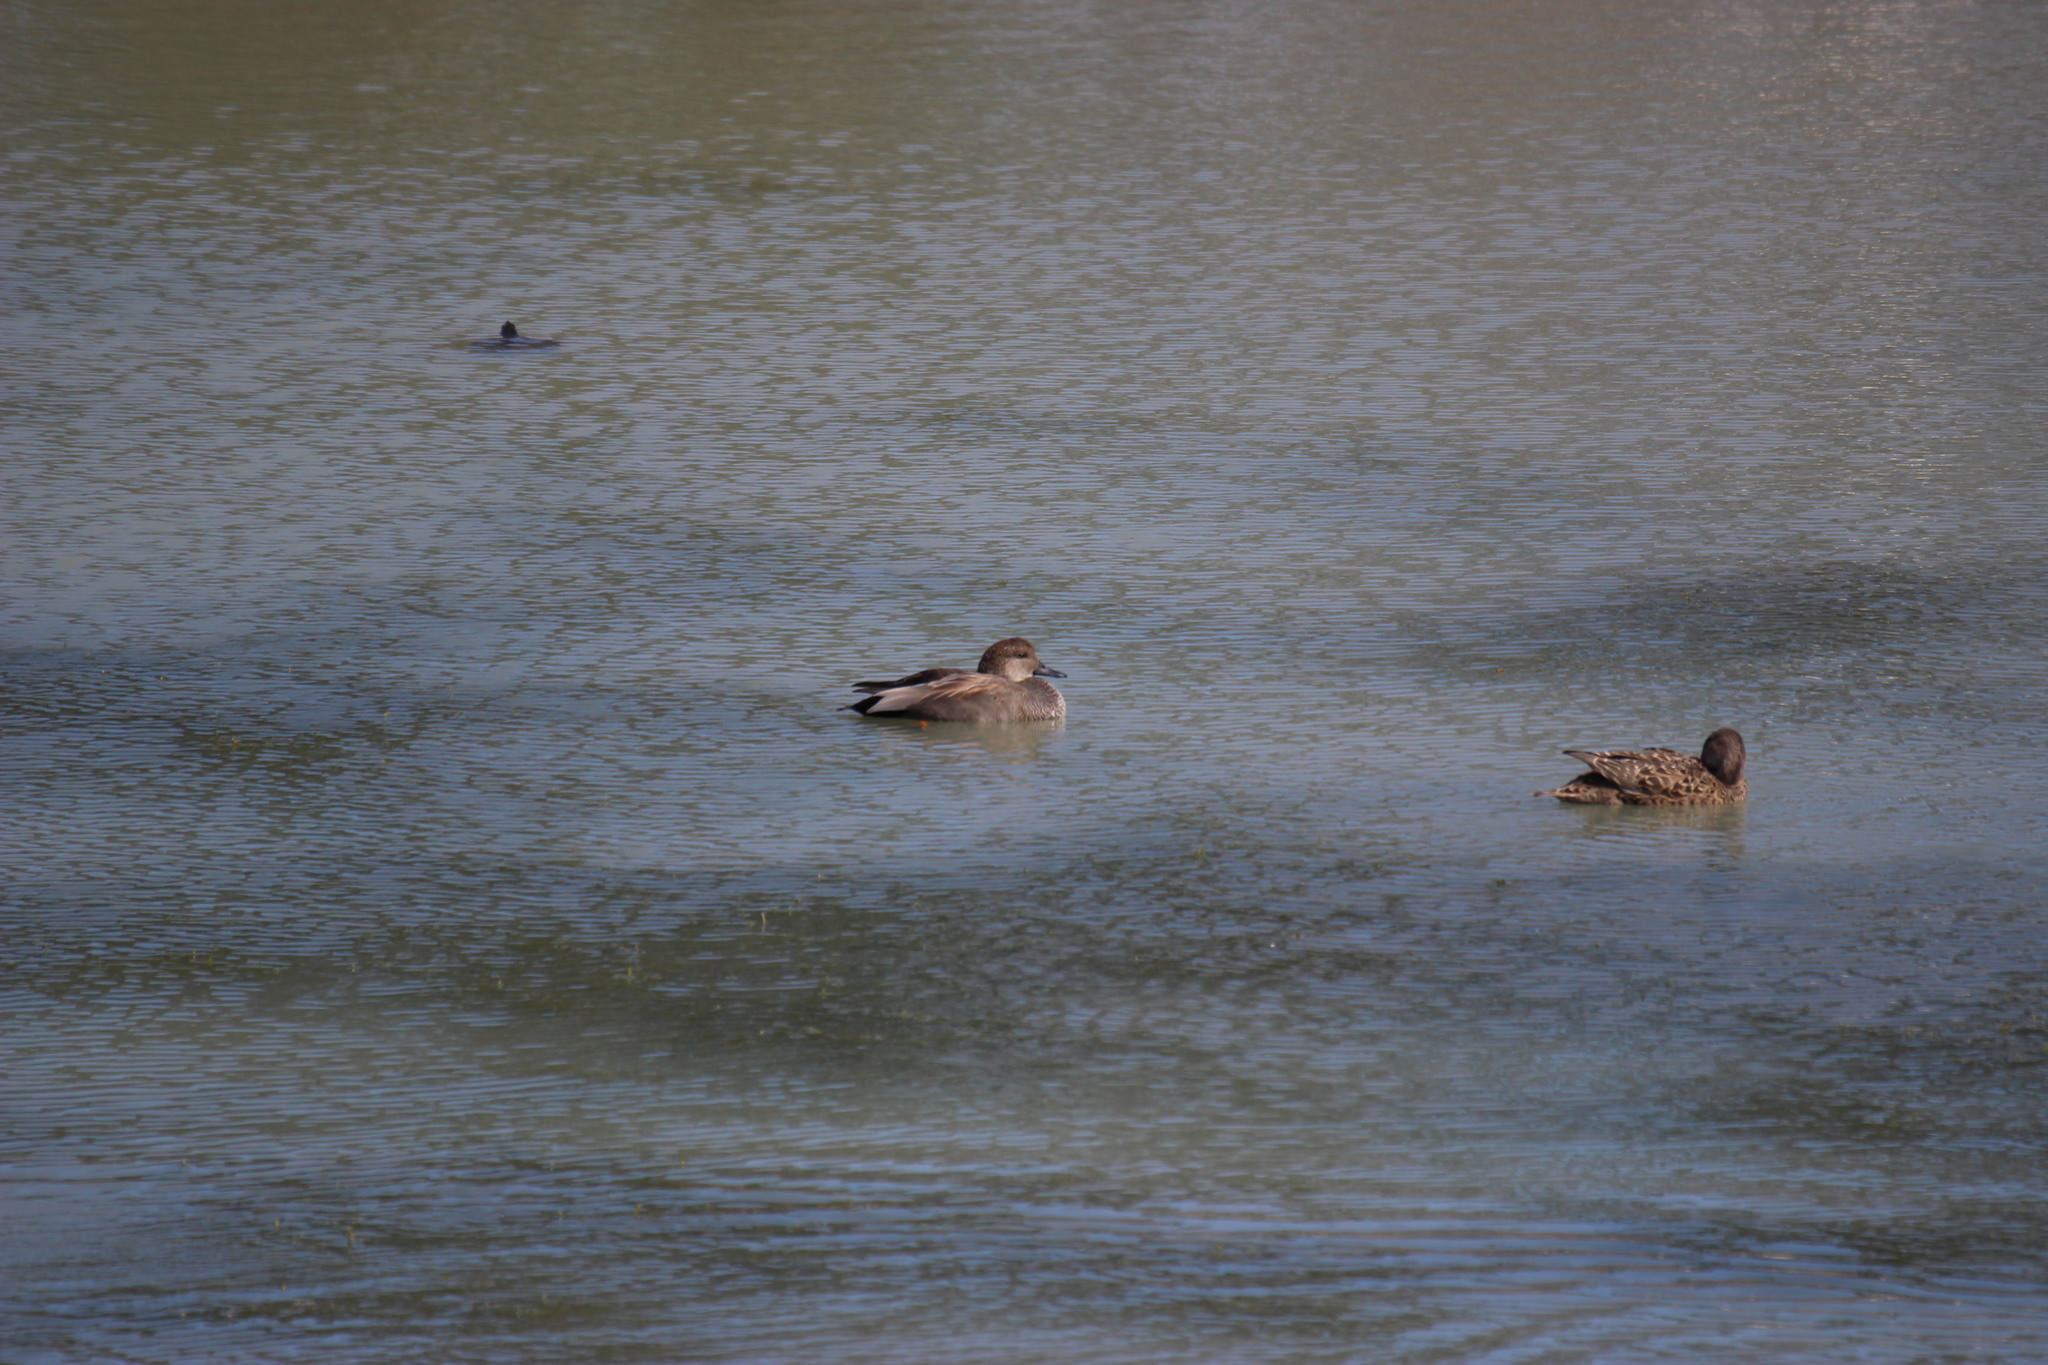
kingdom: Animalia
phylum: Chordata
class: Aves
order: Anseriformes
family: Anatidae
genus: Mareca
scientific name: Mareca strepera
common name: Gadwall
